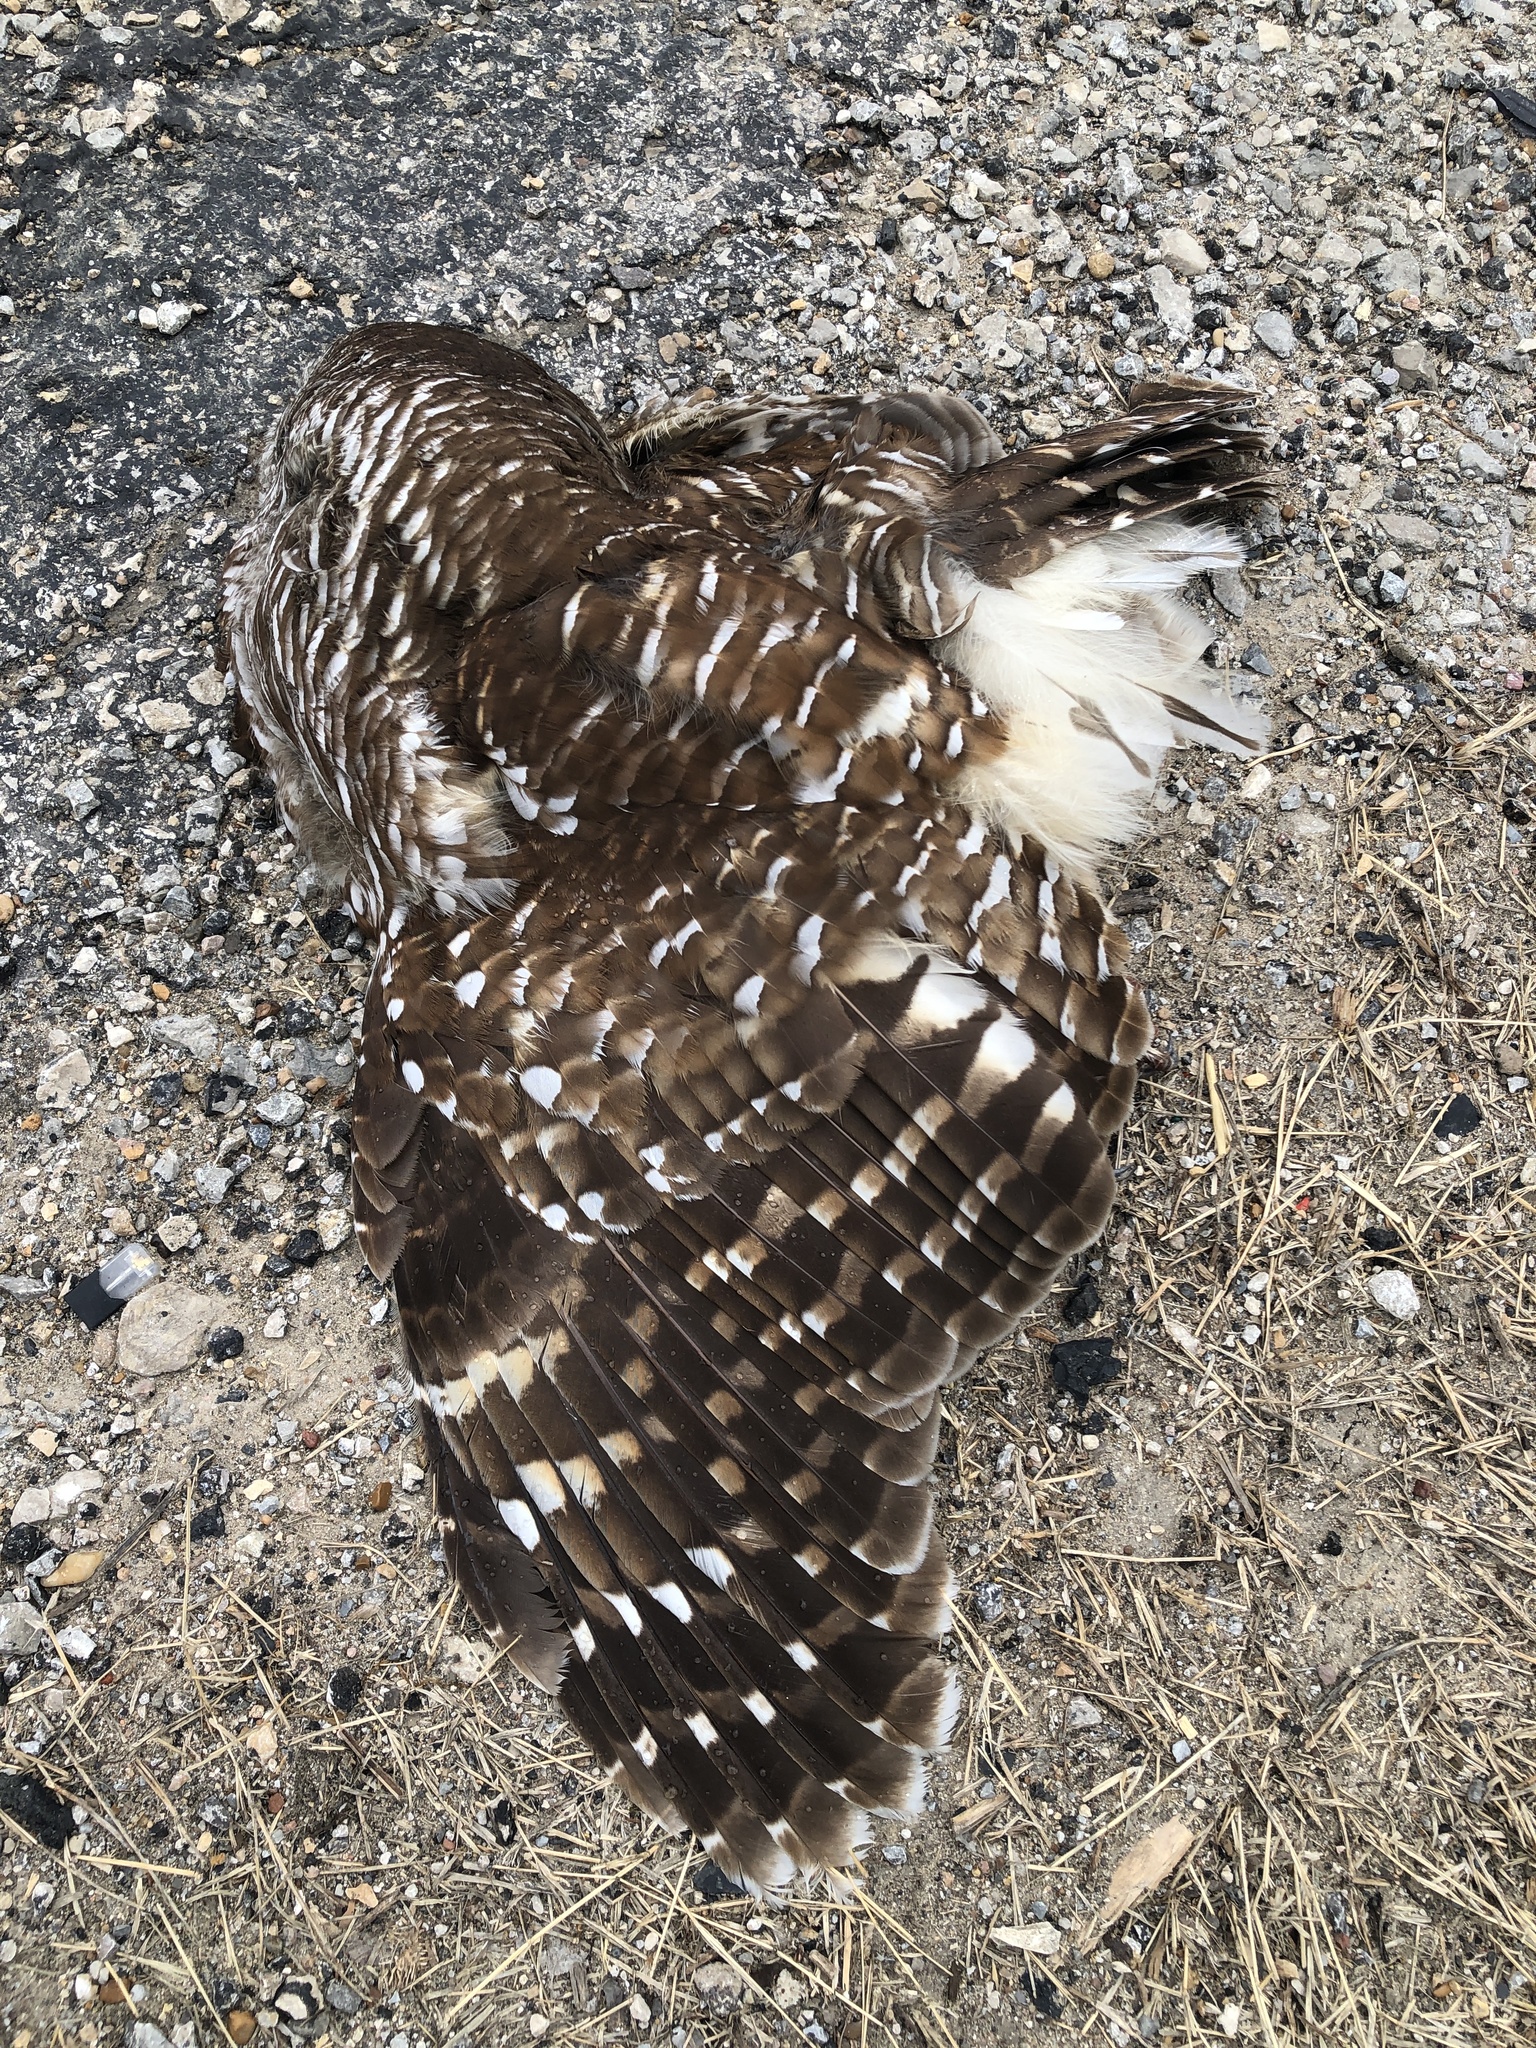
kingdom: Animalia
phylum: Chordata
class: Aves
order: Strigiformes
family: Strigidae
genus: Strix
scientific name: Strix varia
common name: Barred owl
